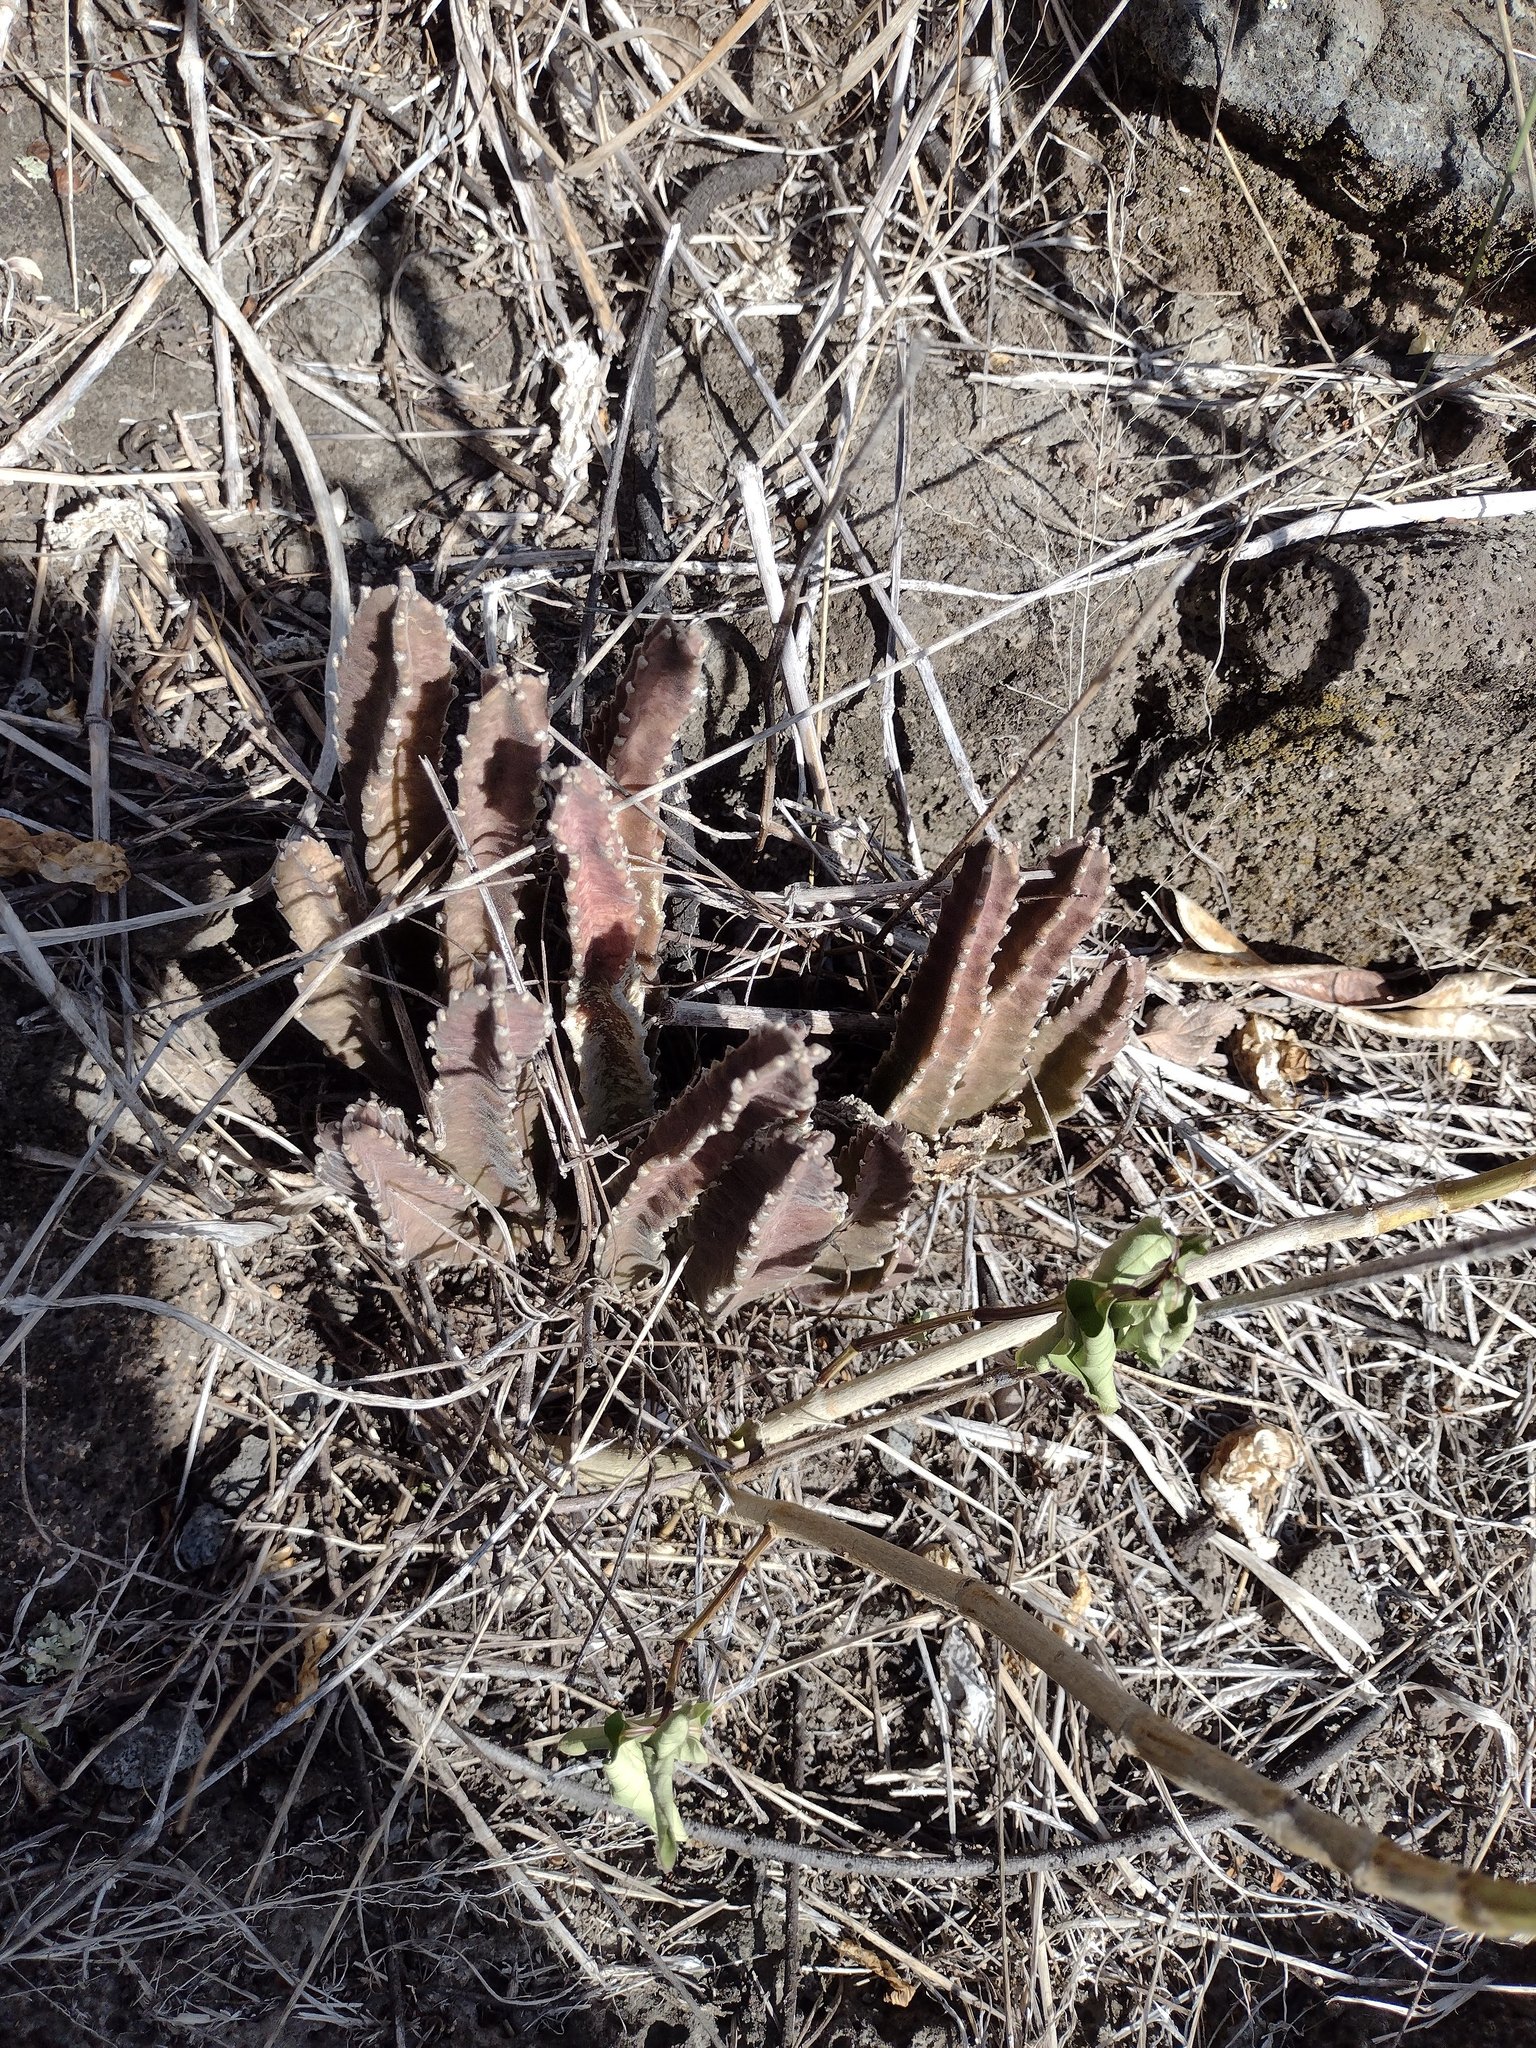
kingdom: Plantae
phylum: Tracheophyta
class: Magnoliopsida
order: Gentianales
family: Apocynaceae
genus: Ceropegia
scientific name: Ceropegia gigantea
